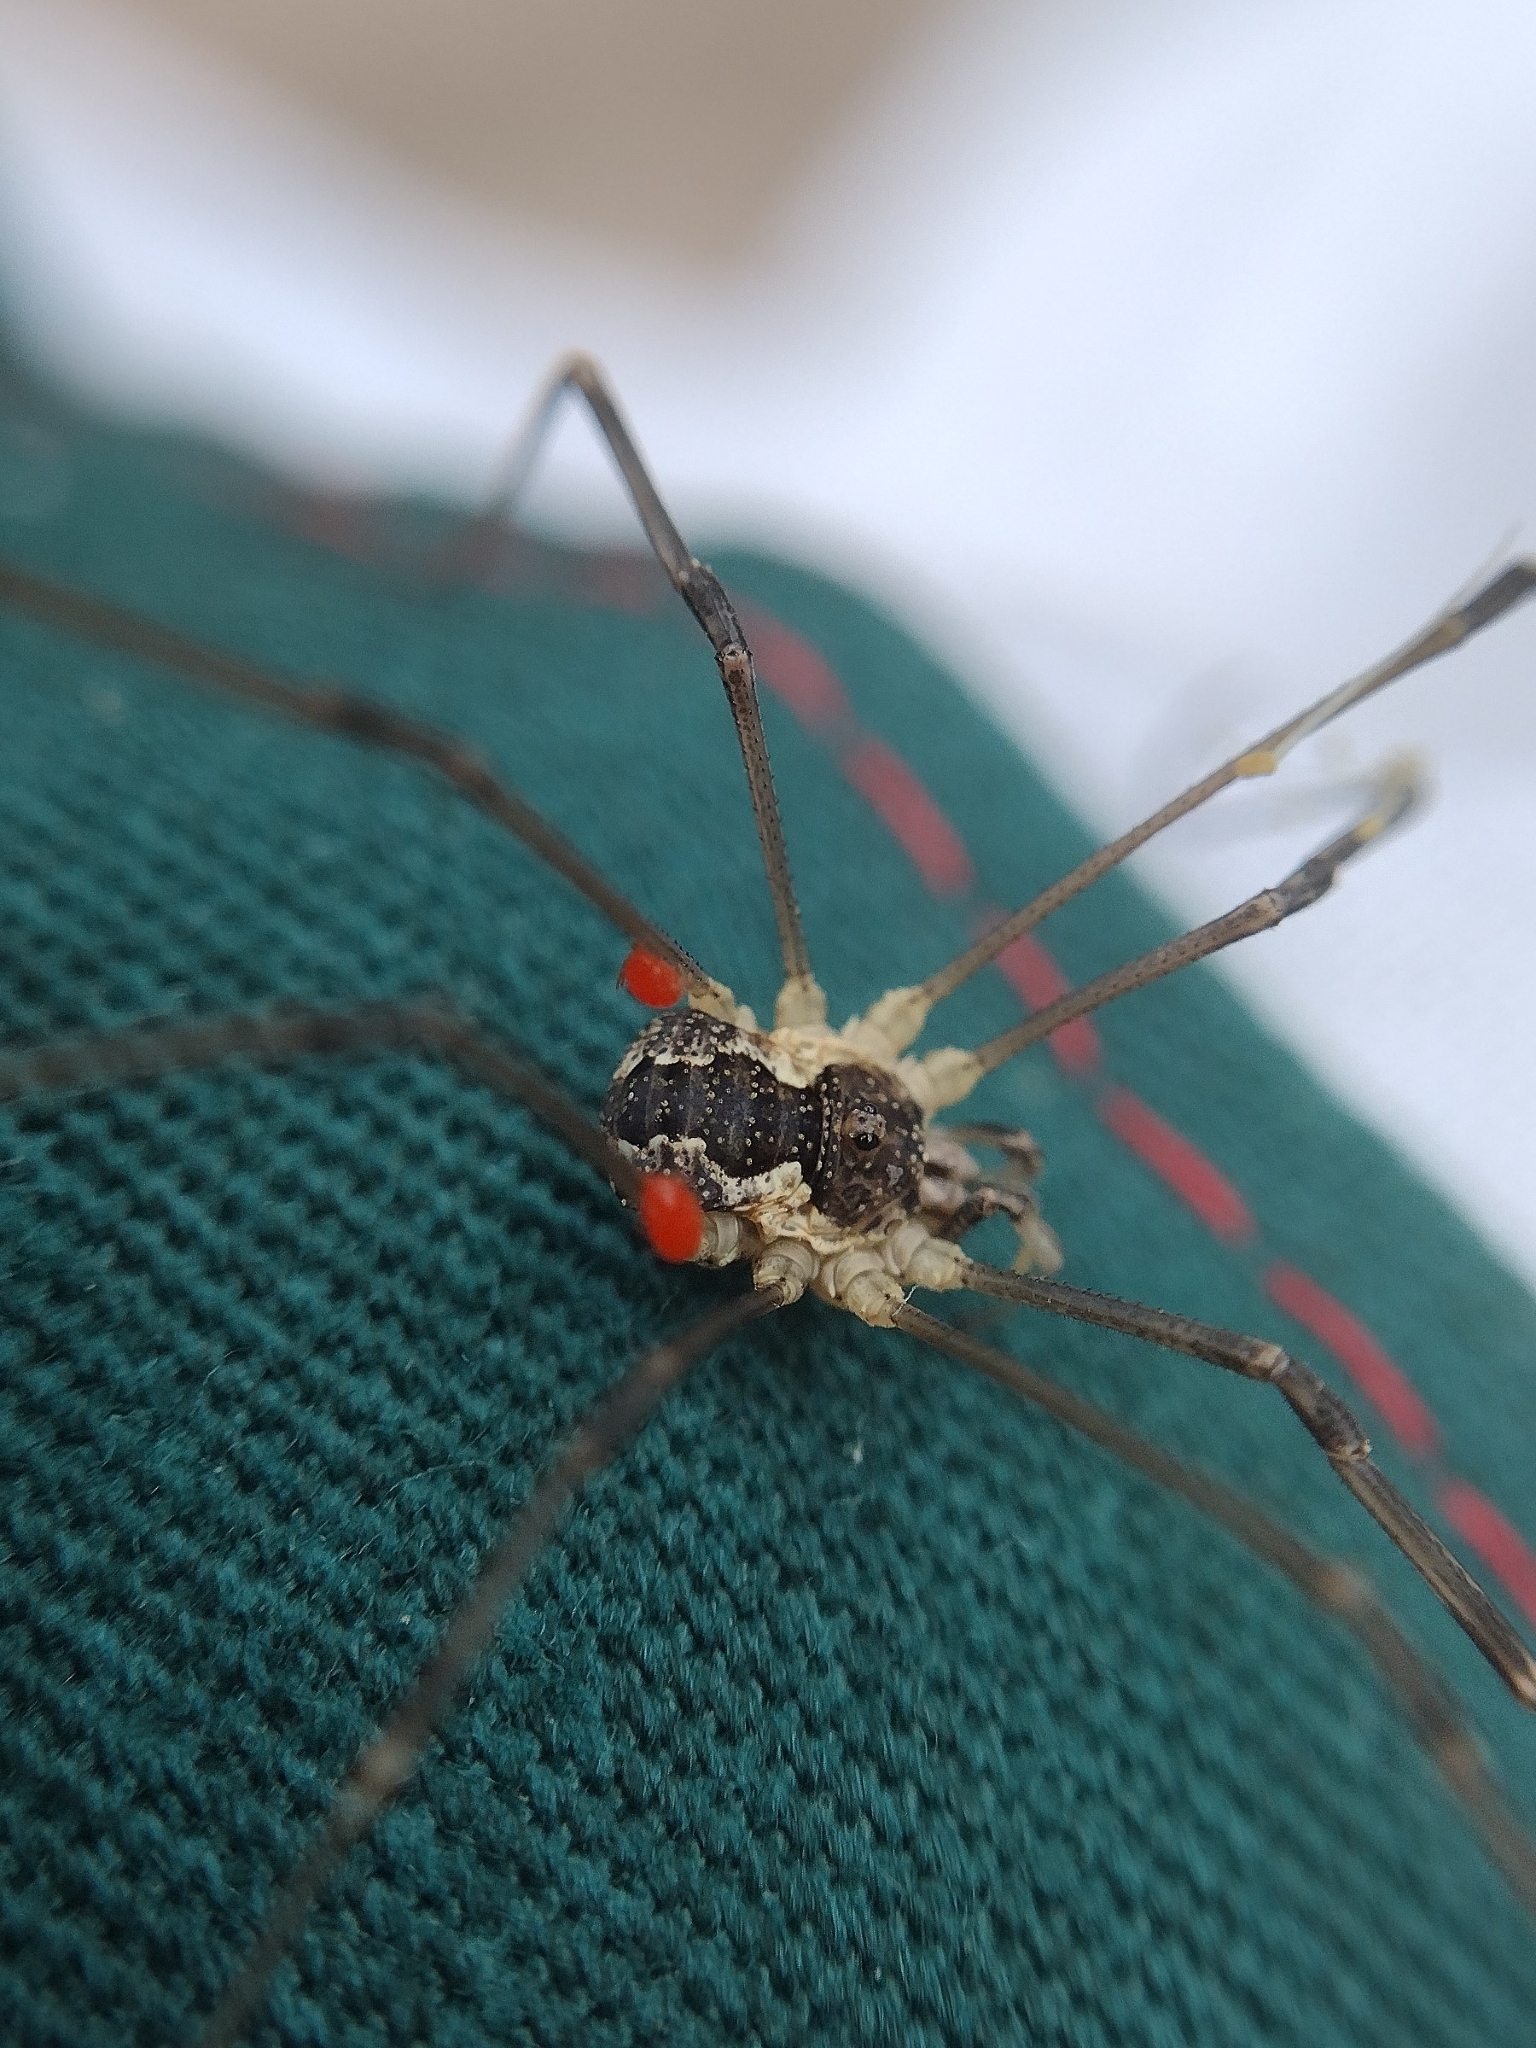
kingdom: Animalia
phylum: Arthropoda
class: Arachnida
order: Opiliones
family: Phalangiidae
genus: Mitopus
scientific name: Mitopus morio
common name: Saddleback harvestman
